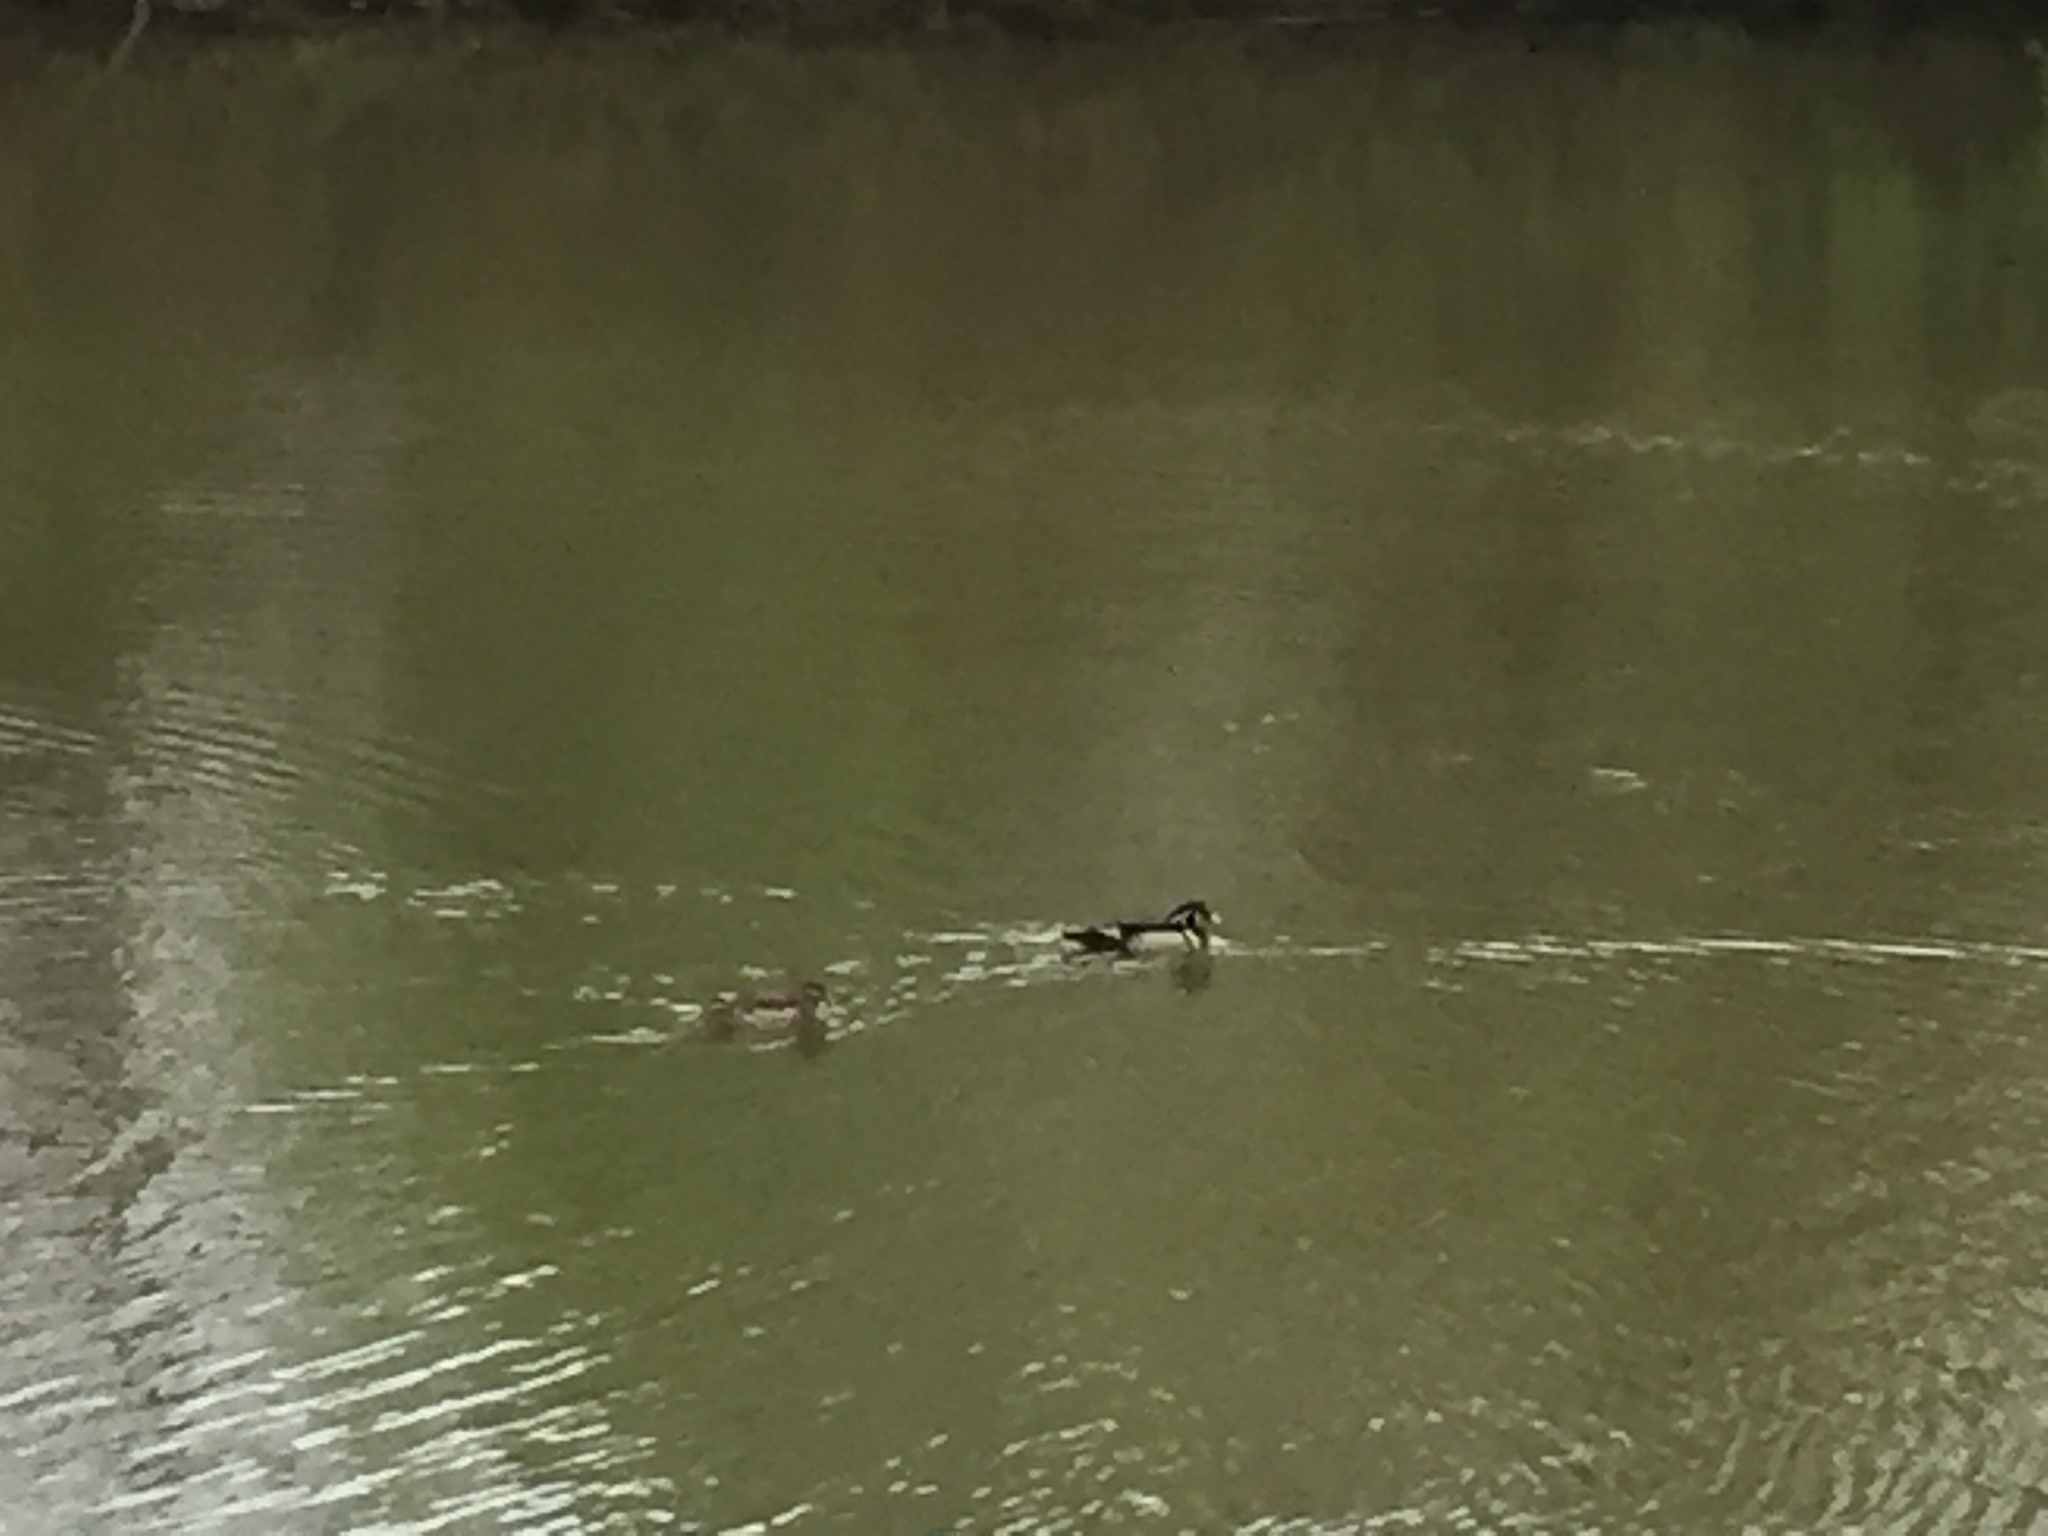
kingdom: Animalia
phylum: Chordata
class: Aves
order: Anseriformes
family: Anatidae
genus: Aix
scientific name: Aix sponsa
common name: Wood duck
